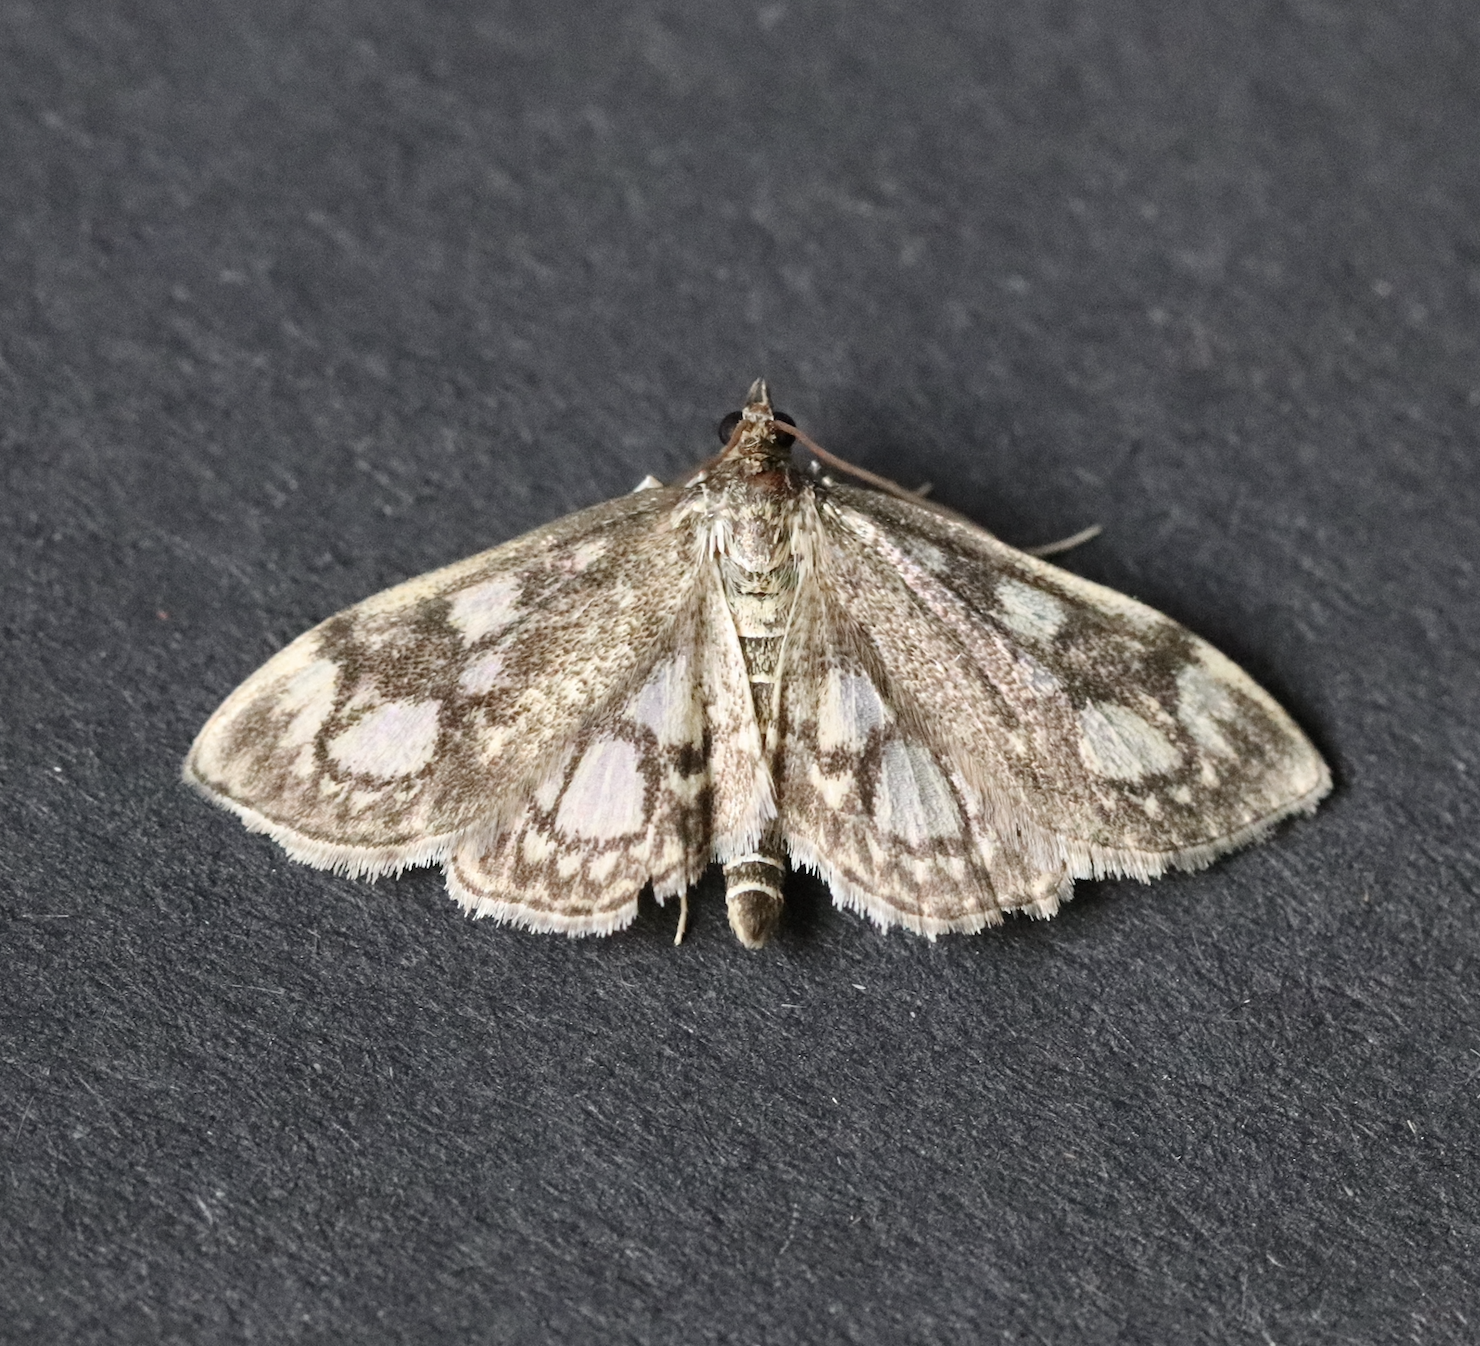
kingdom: Animalia
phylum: Arthropoda
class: Insecta
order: Lepidoptera
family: Crambidae
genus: Anania
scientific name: Anania coronata
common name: Elder pearl
